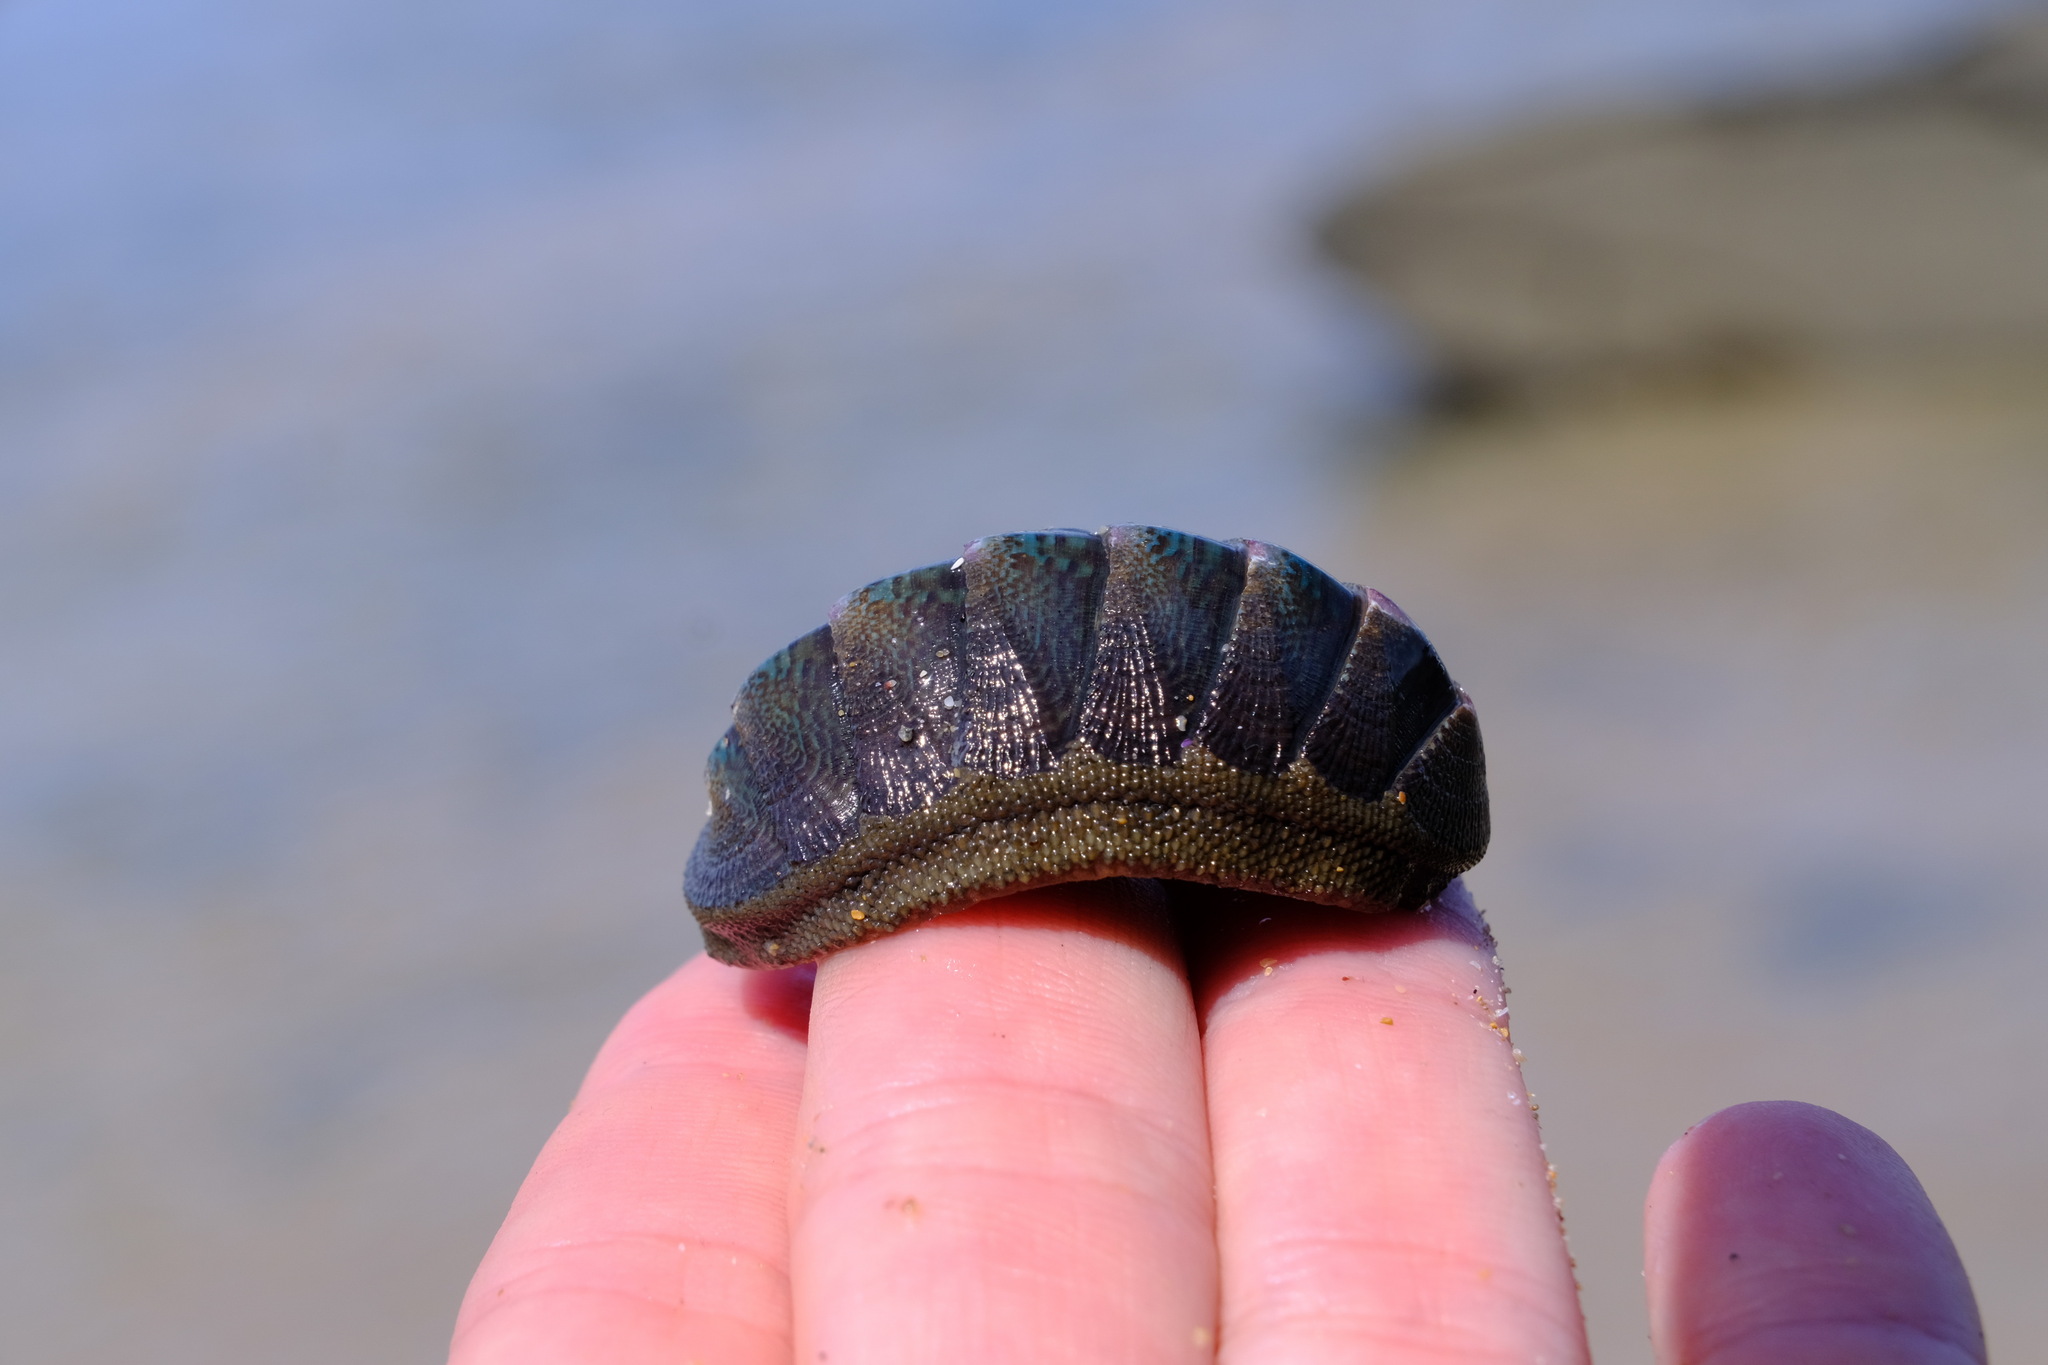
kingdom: Animalia
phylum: Mollusca
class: Polyplacophora
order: Chitonida
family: Ischnochitonidae
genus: Ischnochiton
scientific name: Ischnochiton australis
